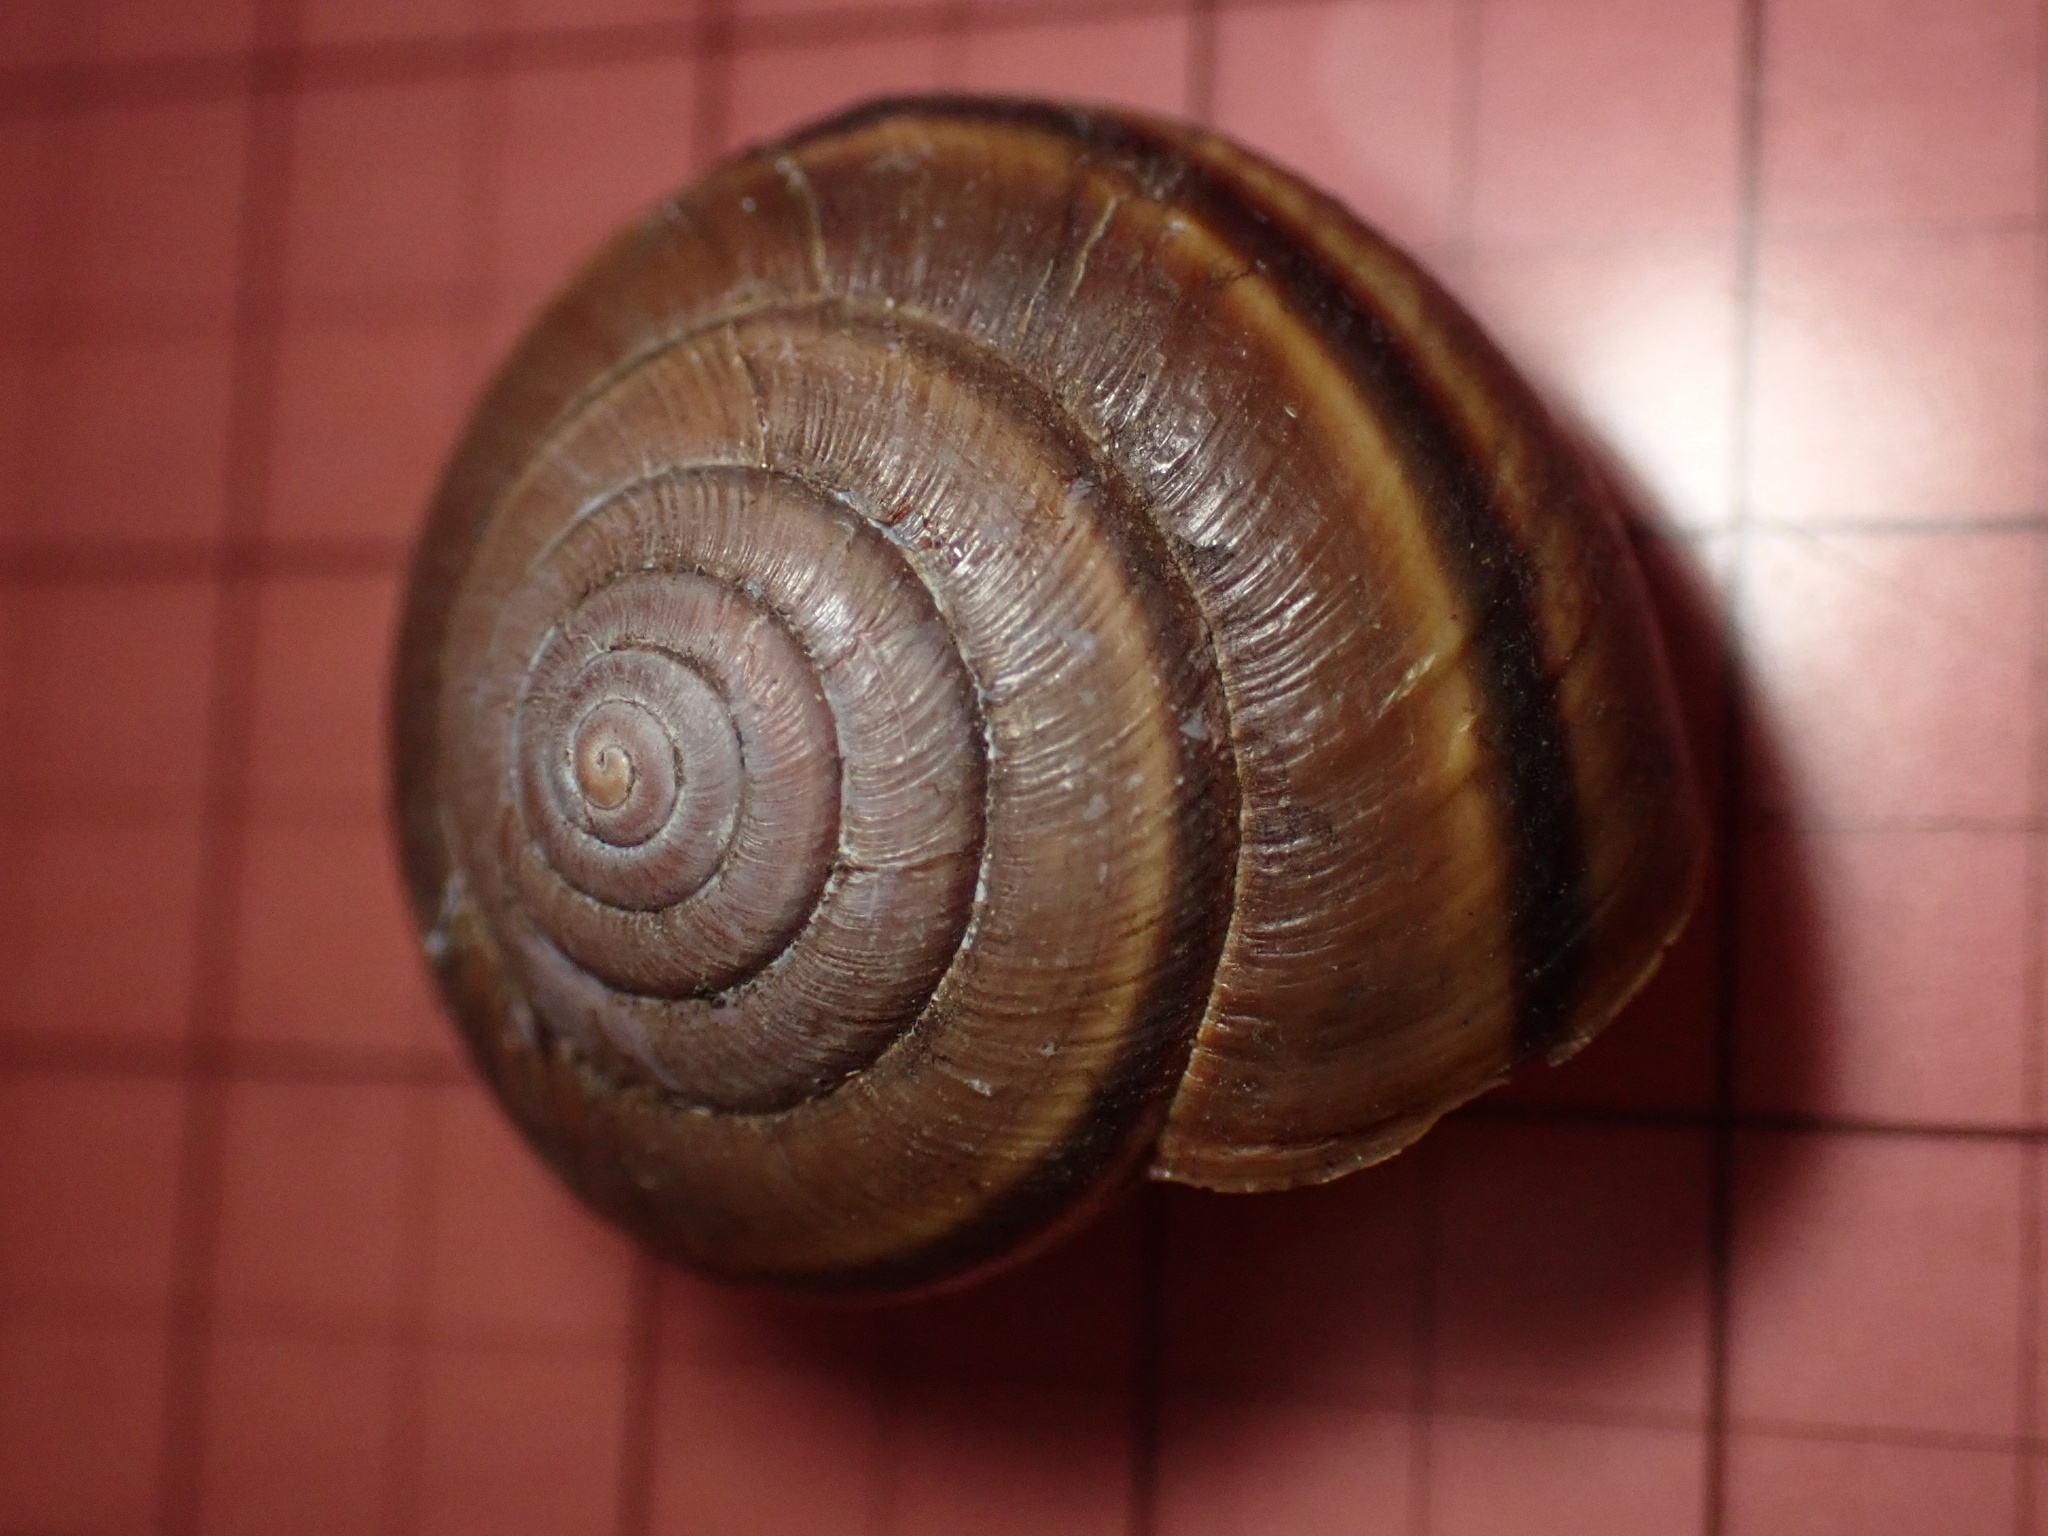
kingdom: Animalia
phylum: Mollusca
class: Gastropoda
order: Stylommatophora
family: Xanthonychidae
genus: Helminthoglypta
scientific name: Helminthoglypta dupetithouarsi
